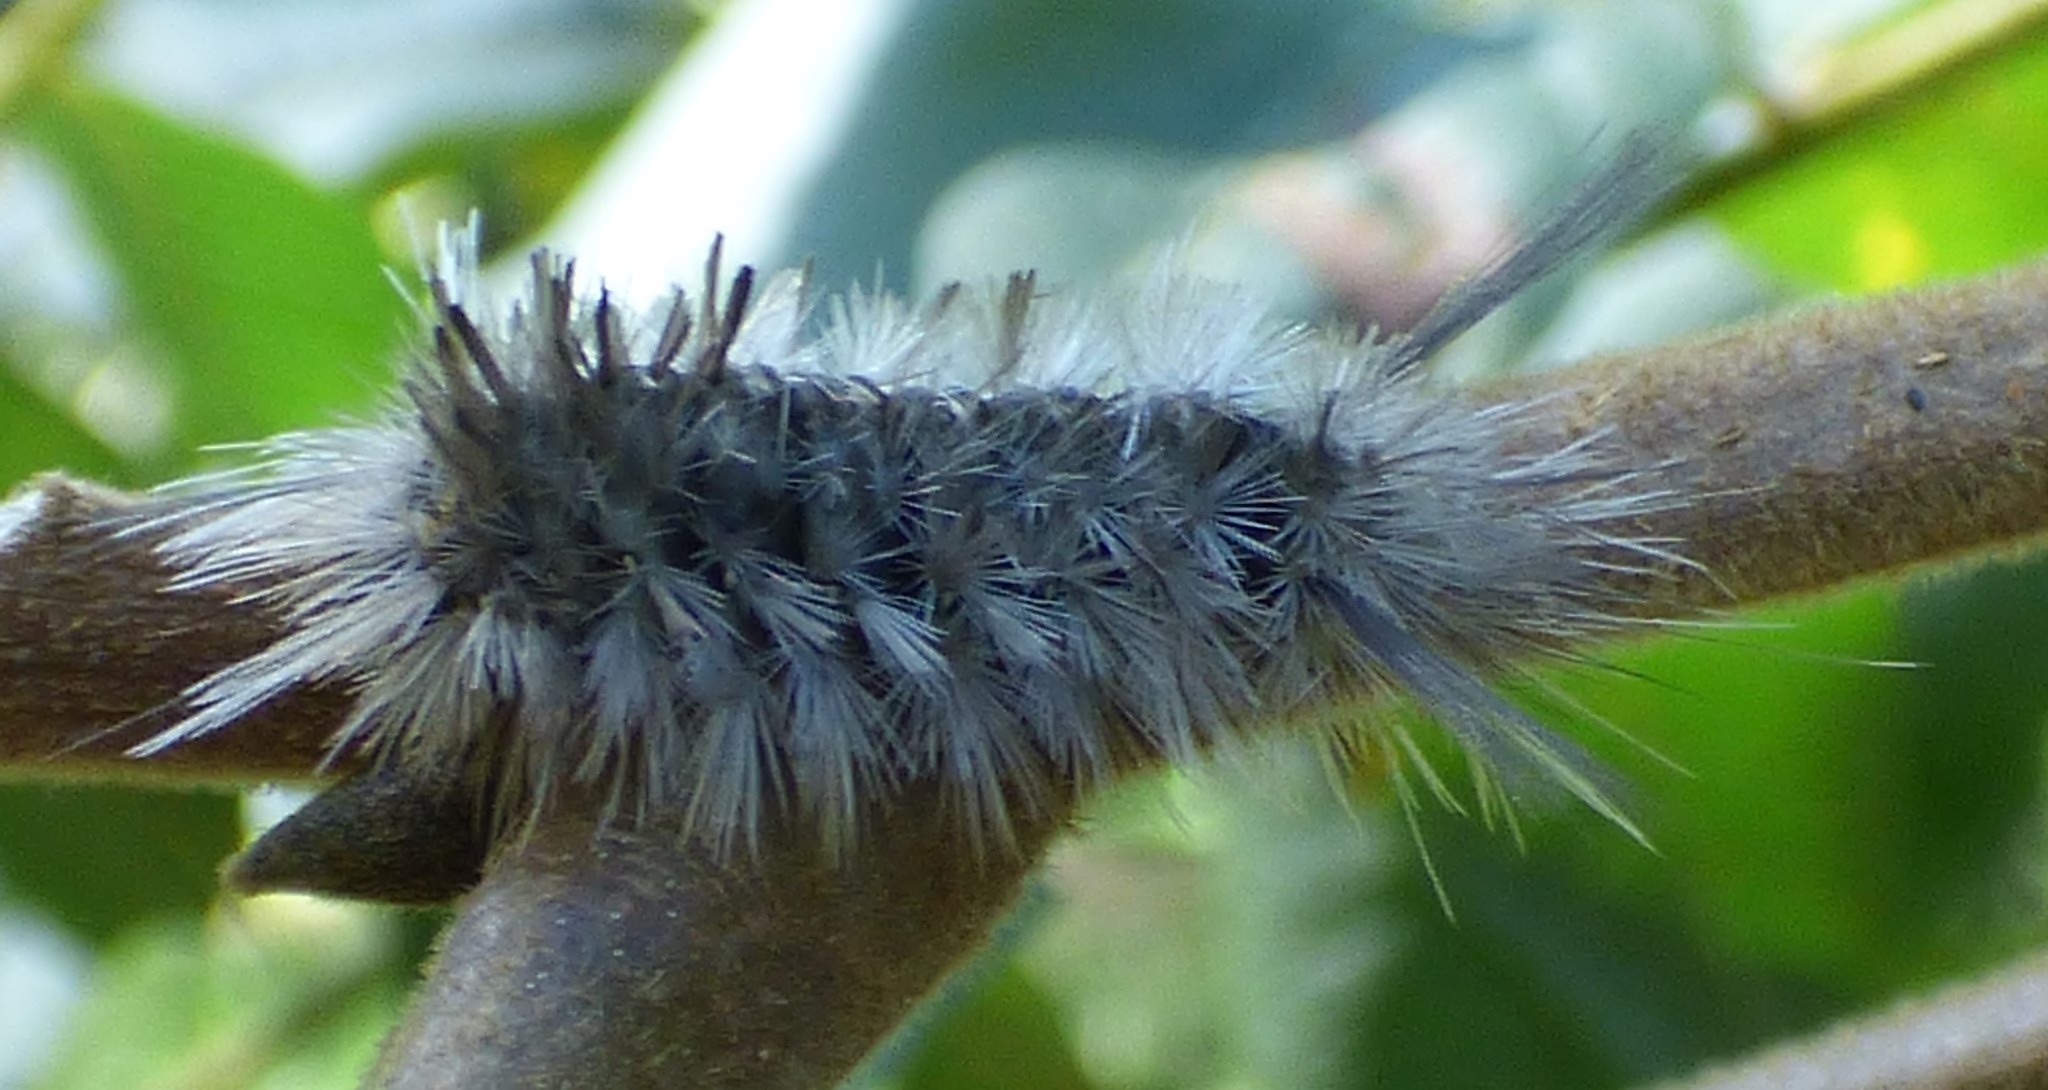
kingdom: Animalia
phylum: Arthropoda
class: Insecta
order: Lepidoptera
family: Erebidae
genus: Halysidota
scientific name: Halysidota tessellaris
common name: Banded tussock moth
